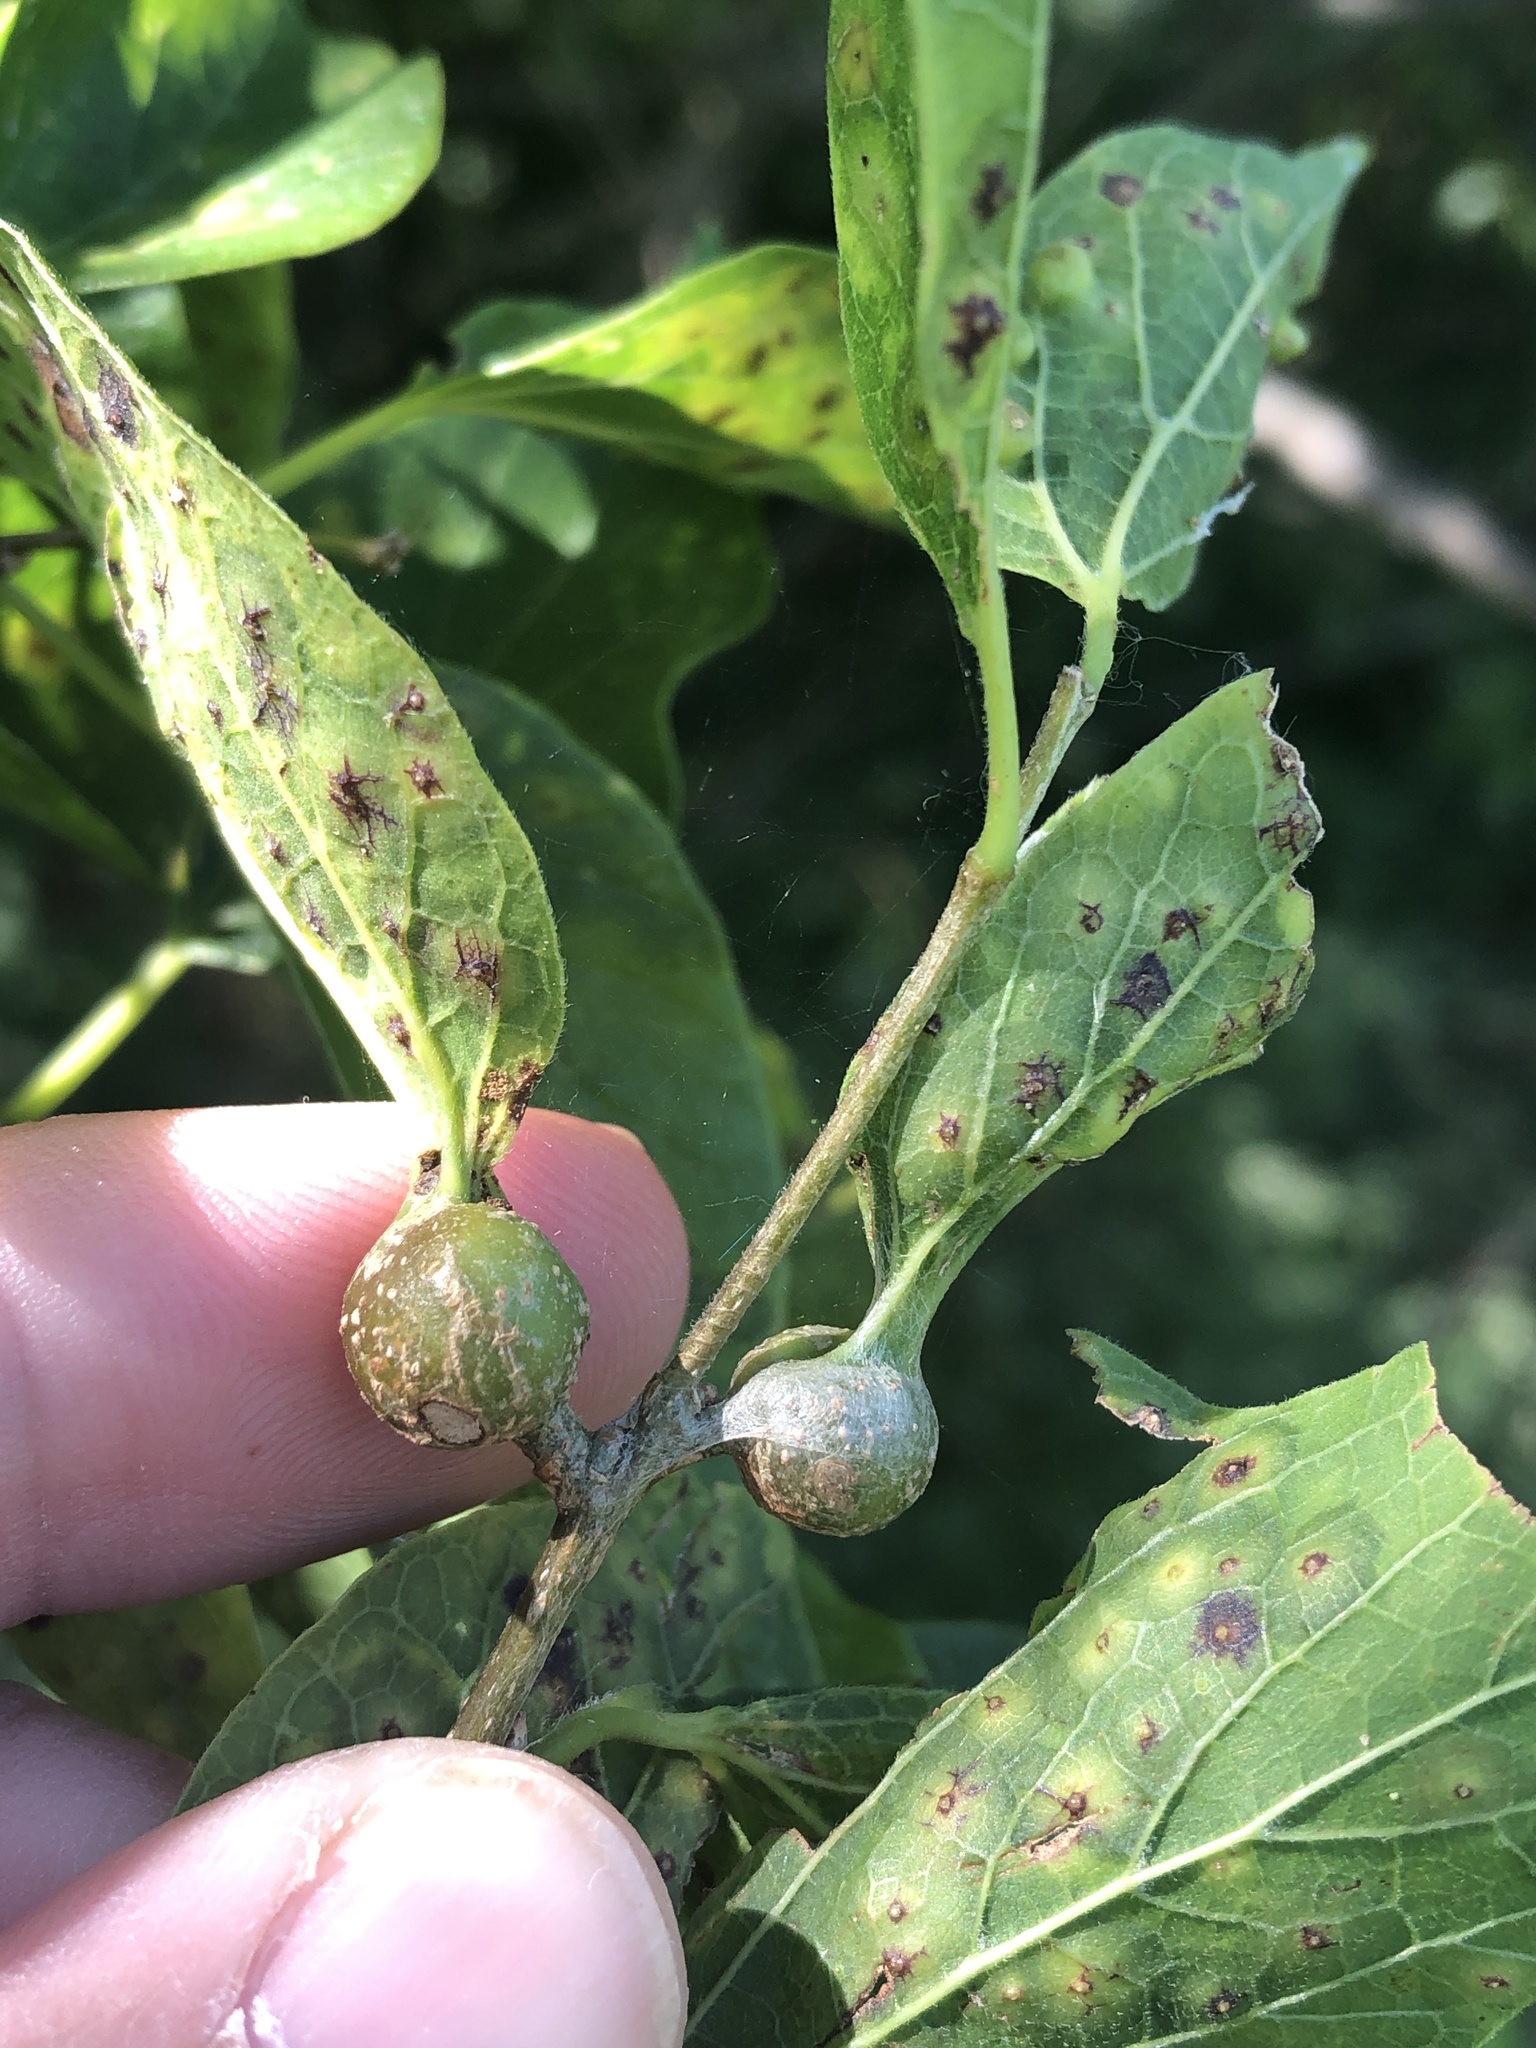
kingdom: Animalia
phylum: Arthropoda
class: Insecta
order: Hemiptera
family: Aphalaridae
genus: Pachypsylla
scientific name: Pachypsylla venusta
